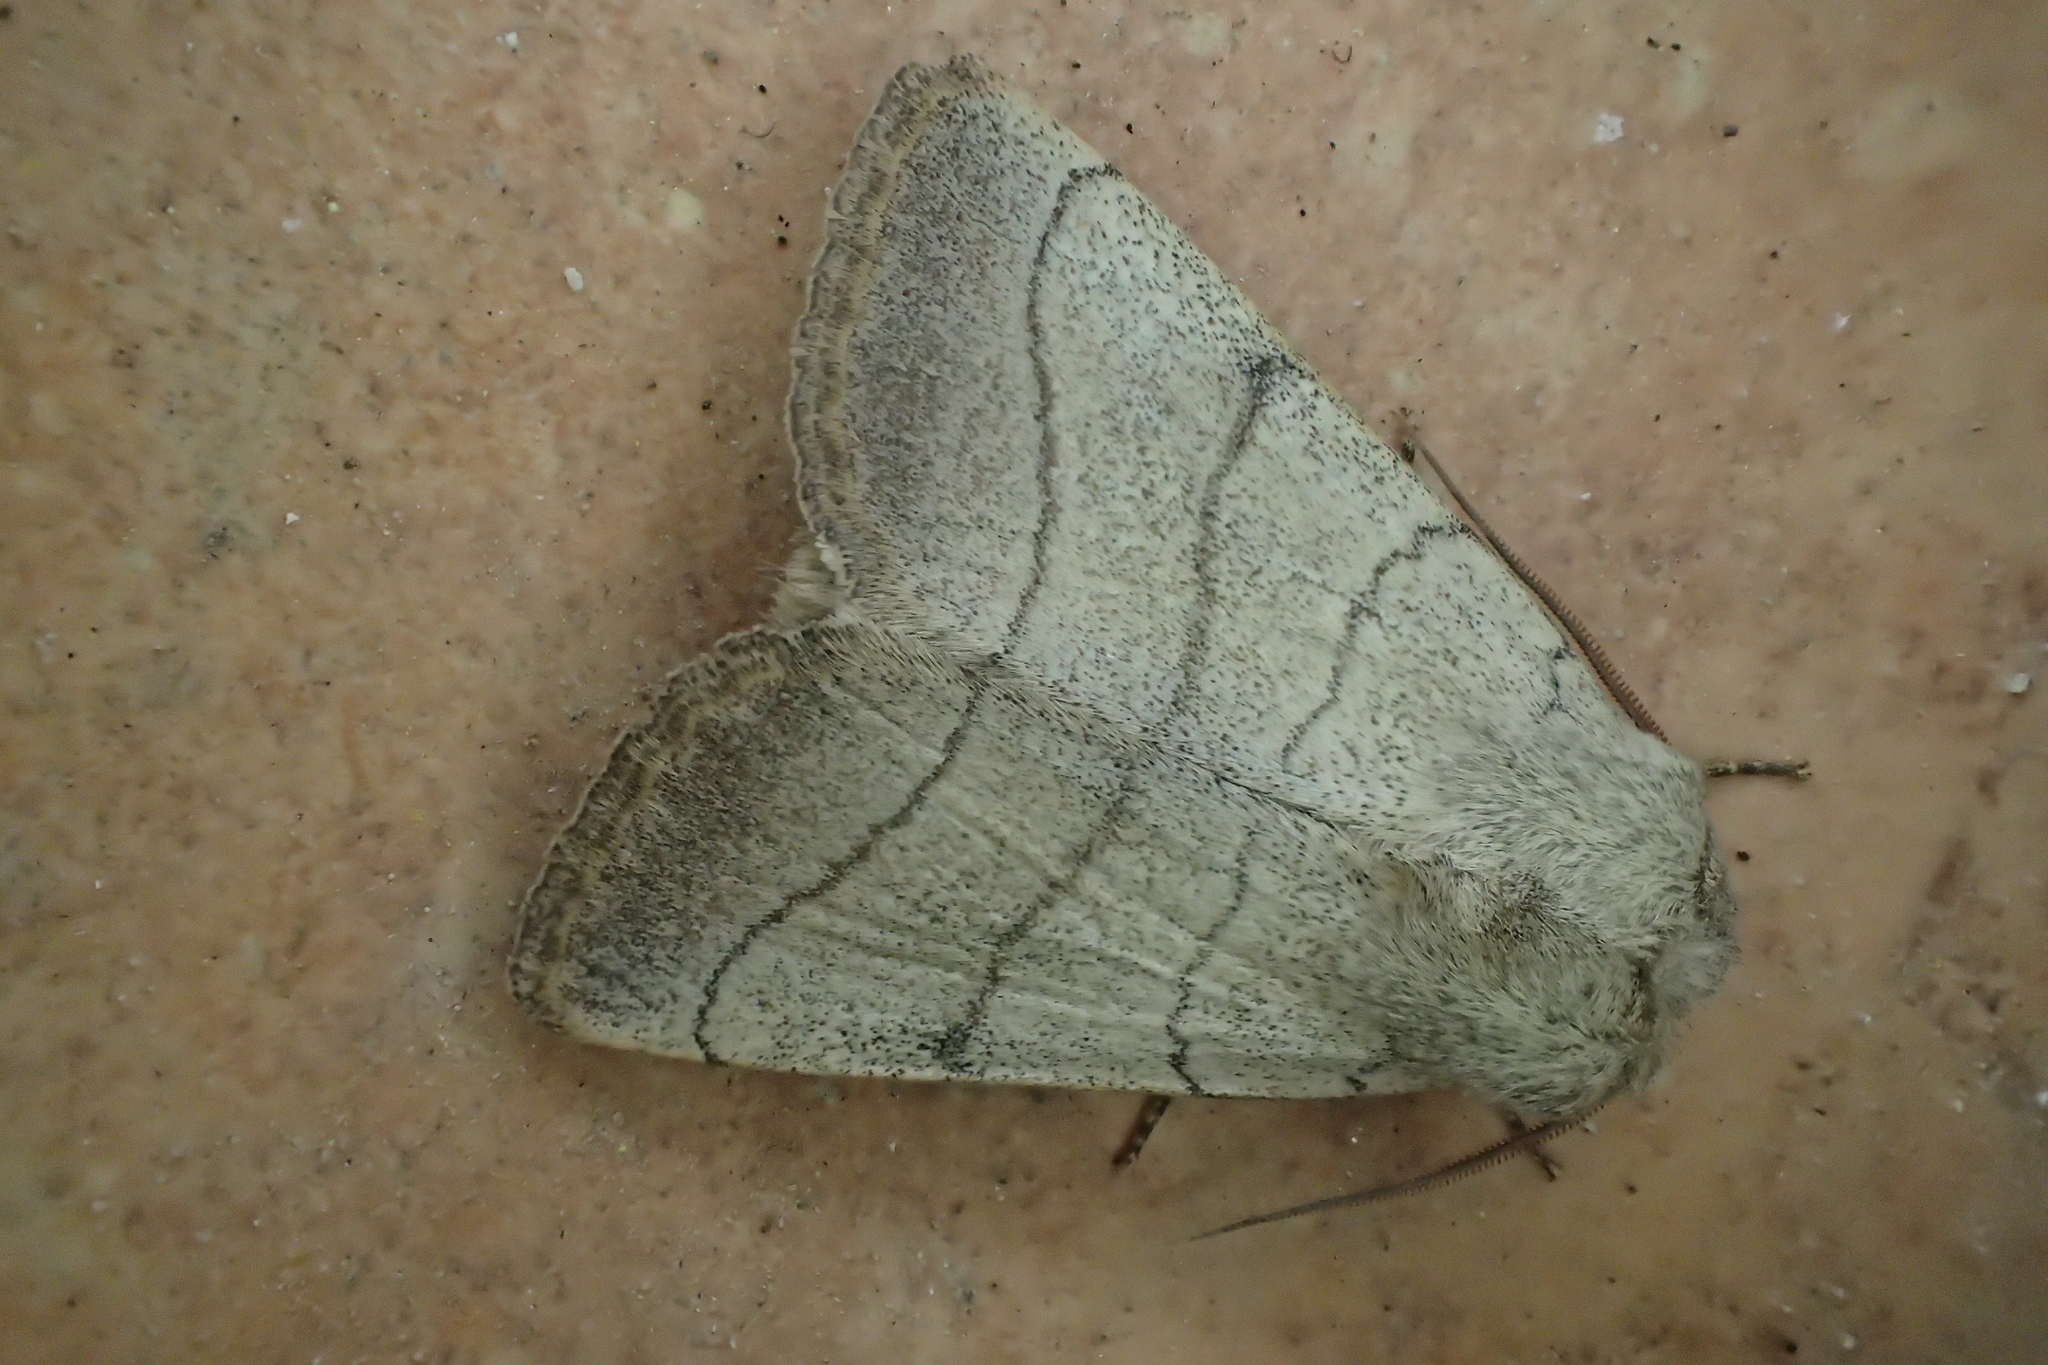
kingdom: Animalia
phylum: Arthropoda
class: Insecta
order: Lepidoptera
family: Noctuidae
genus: Charanyca
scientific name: Charanyca trigrammica
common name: Treble lines
